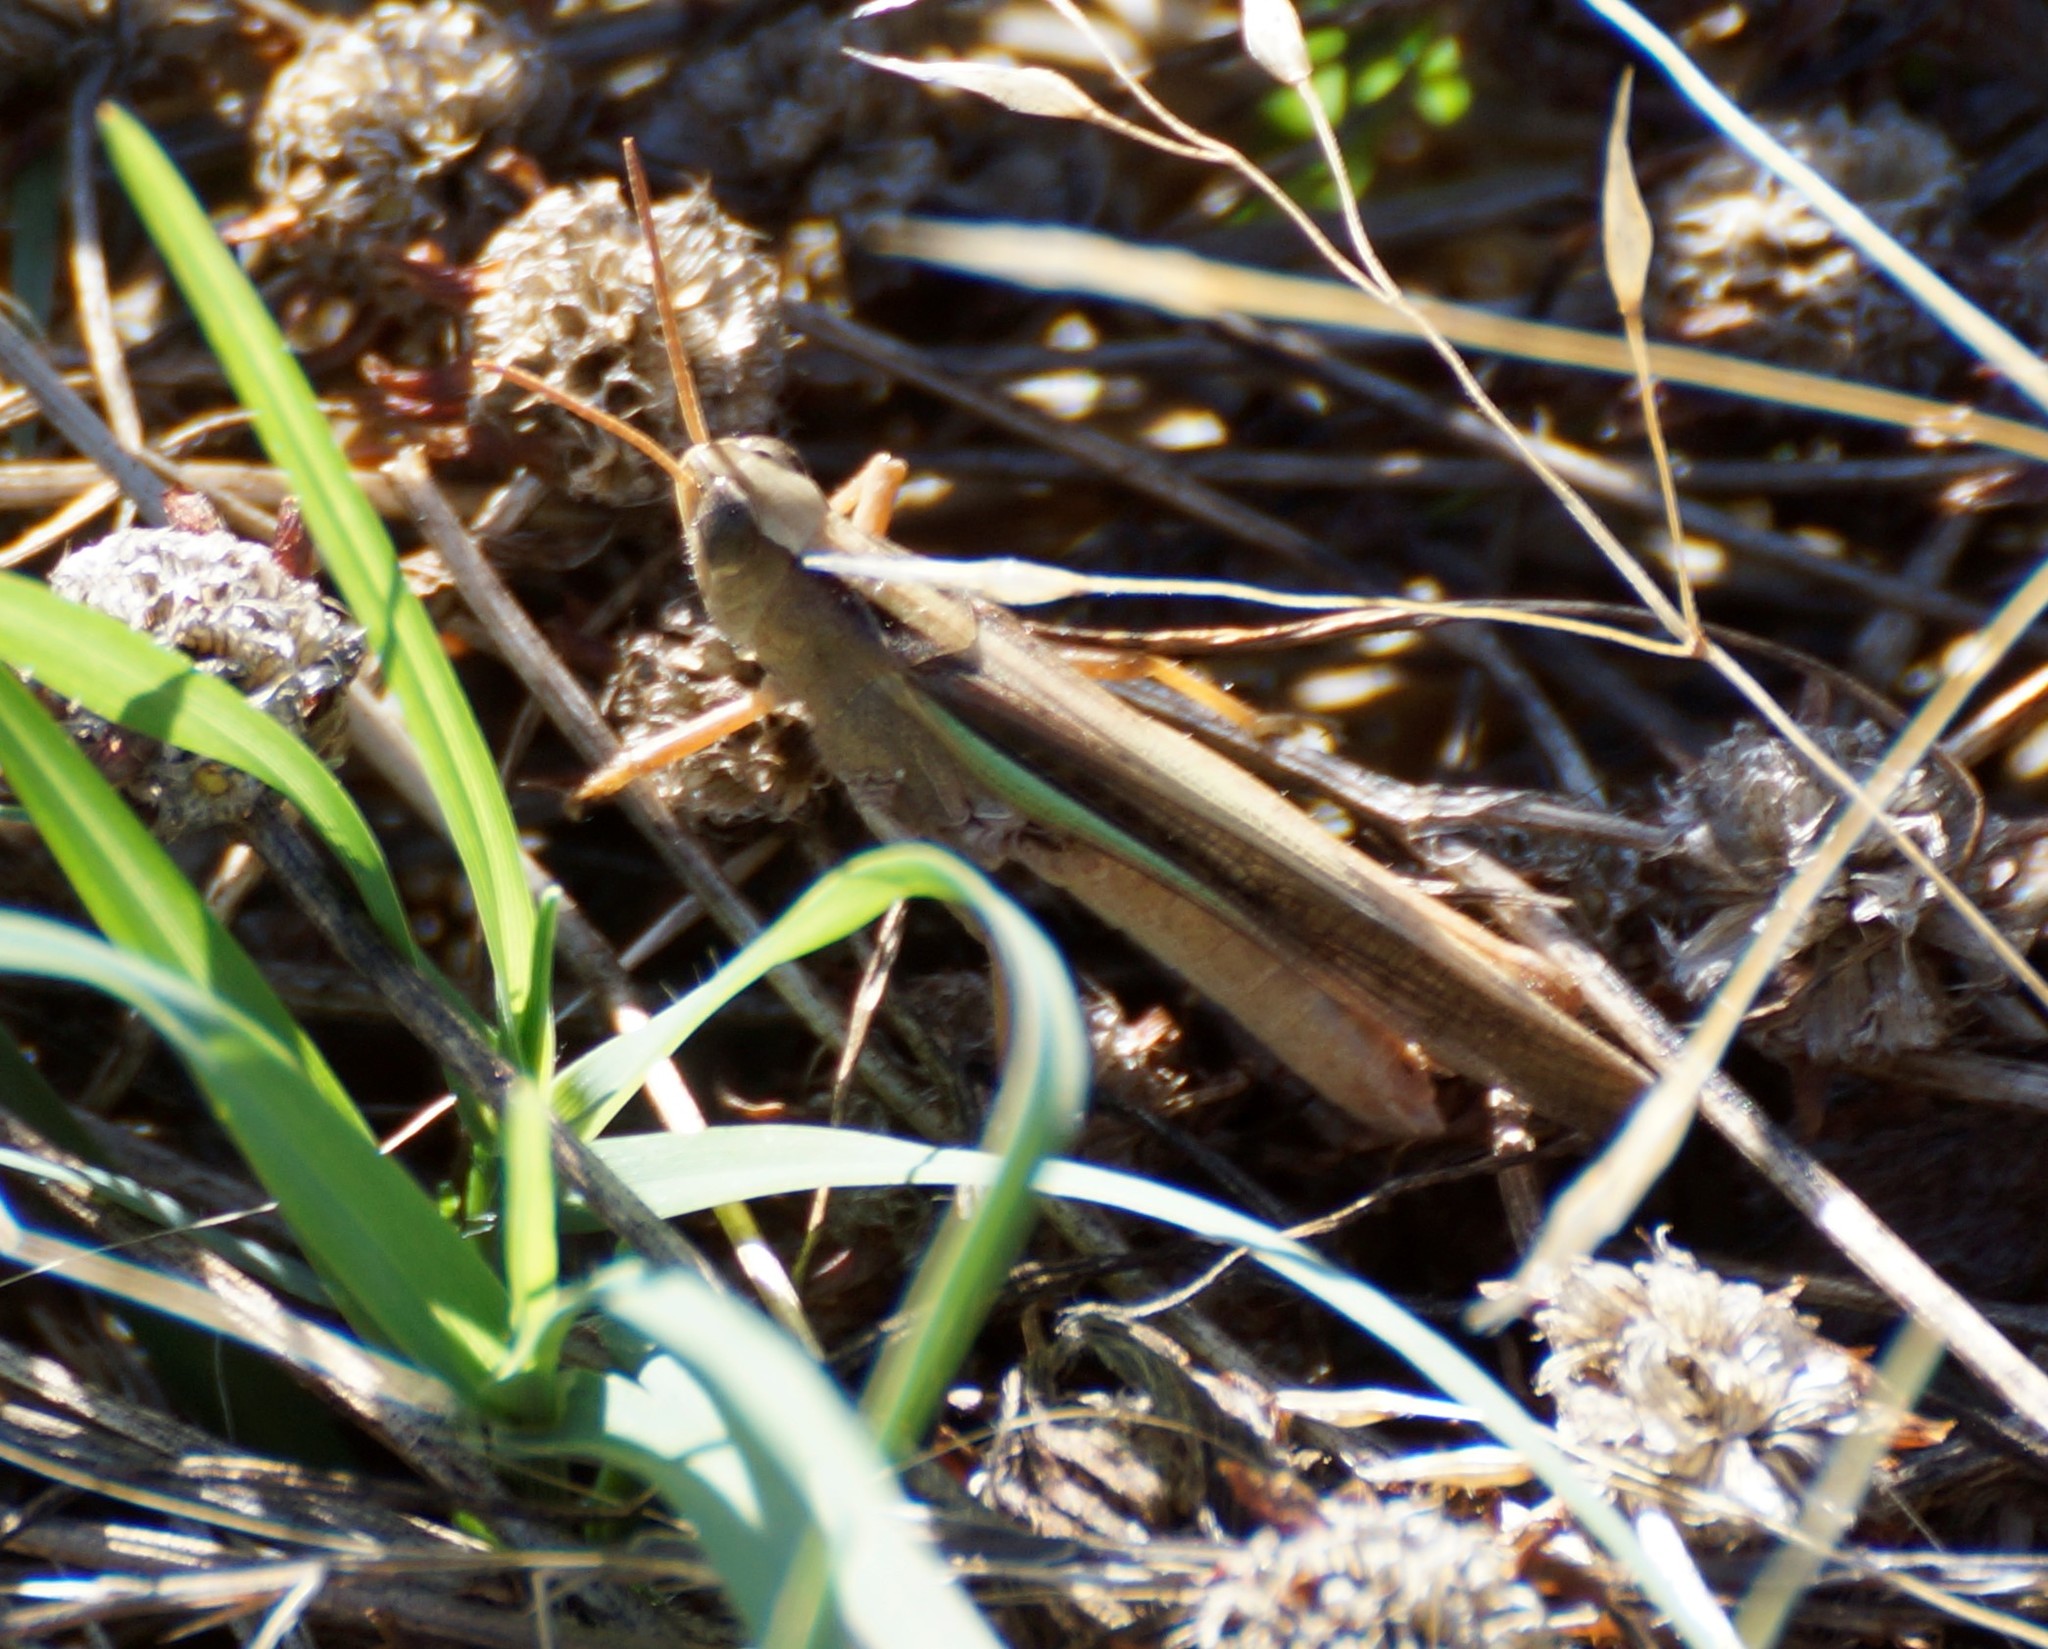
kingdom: Animalia
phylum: Arthropoda
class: Insecta
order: Orthoptera
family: Acrididae
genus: Schizobothrus
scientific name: Schizobothrus flavovittatus
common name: Disappearing grasshopper
